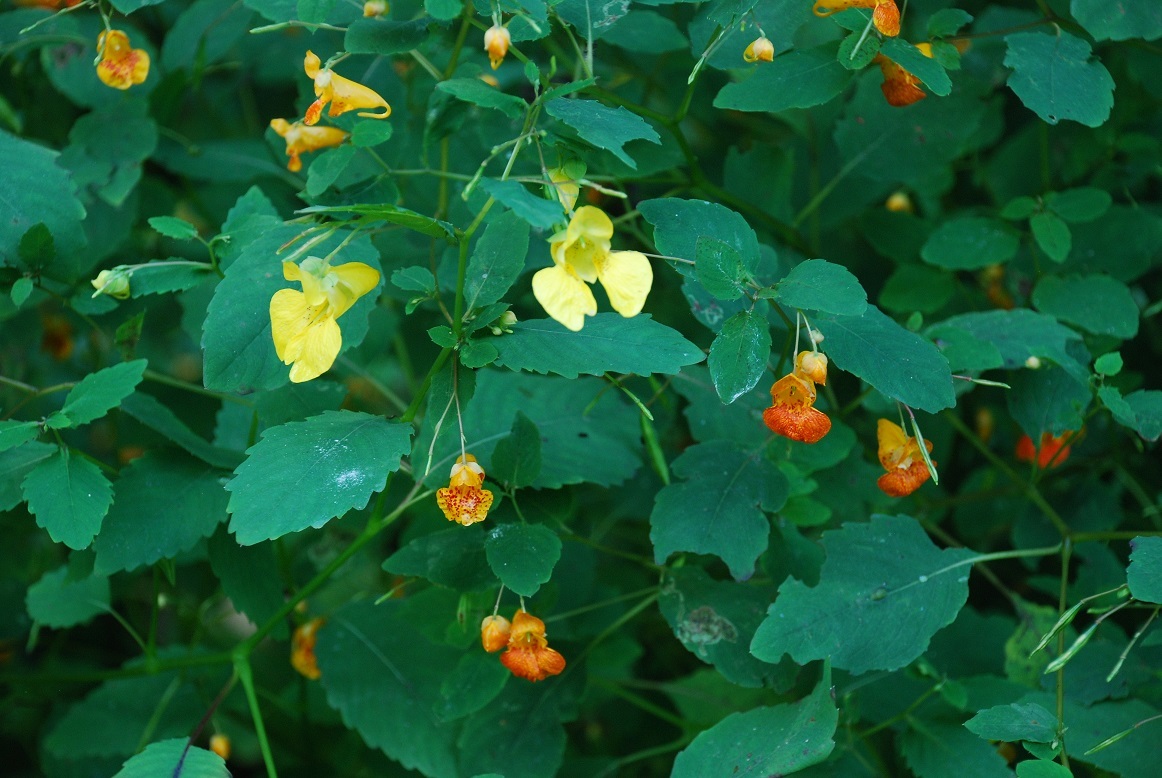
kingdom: Plantae
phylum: Tracheophyta
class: Magnoliopsida
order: Ericales
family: Balsaminaceae
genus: Impatiens
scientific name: Impatiens
